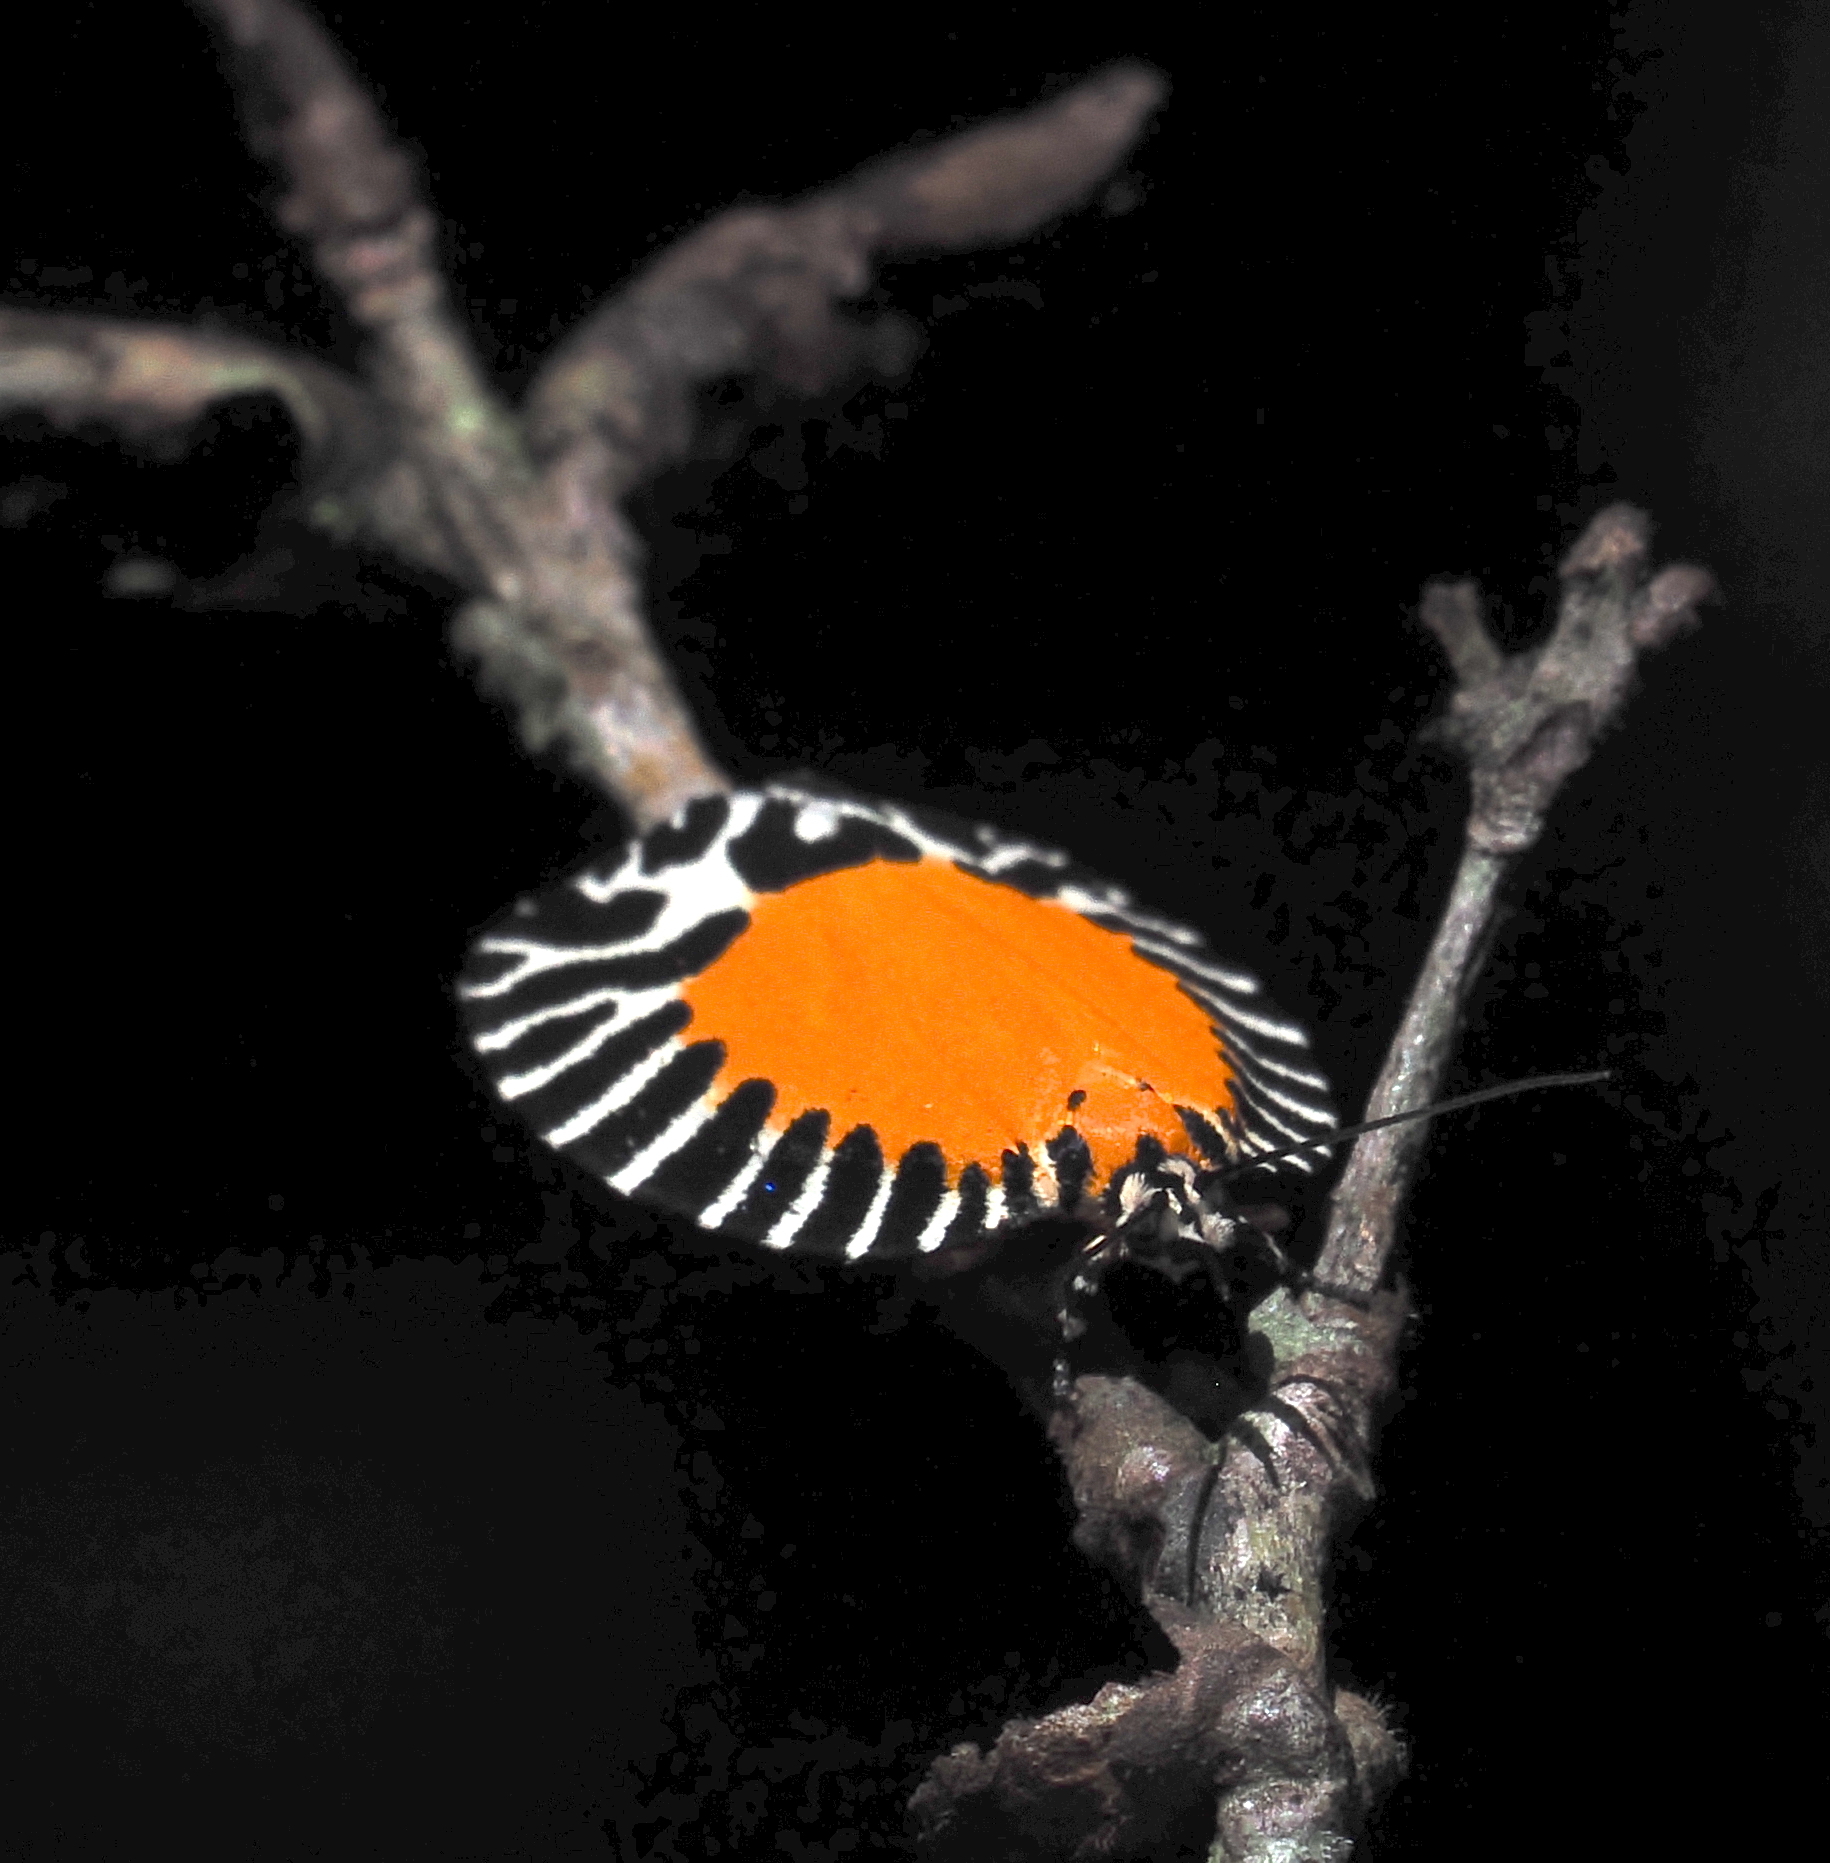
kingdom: Animalia
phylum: Arthropoda
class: Insecta
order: Lepidoptera
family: Tortricidae
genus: Pseudatteria
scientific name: Pseudatteria volcanica
